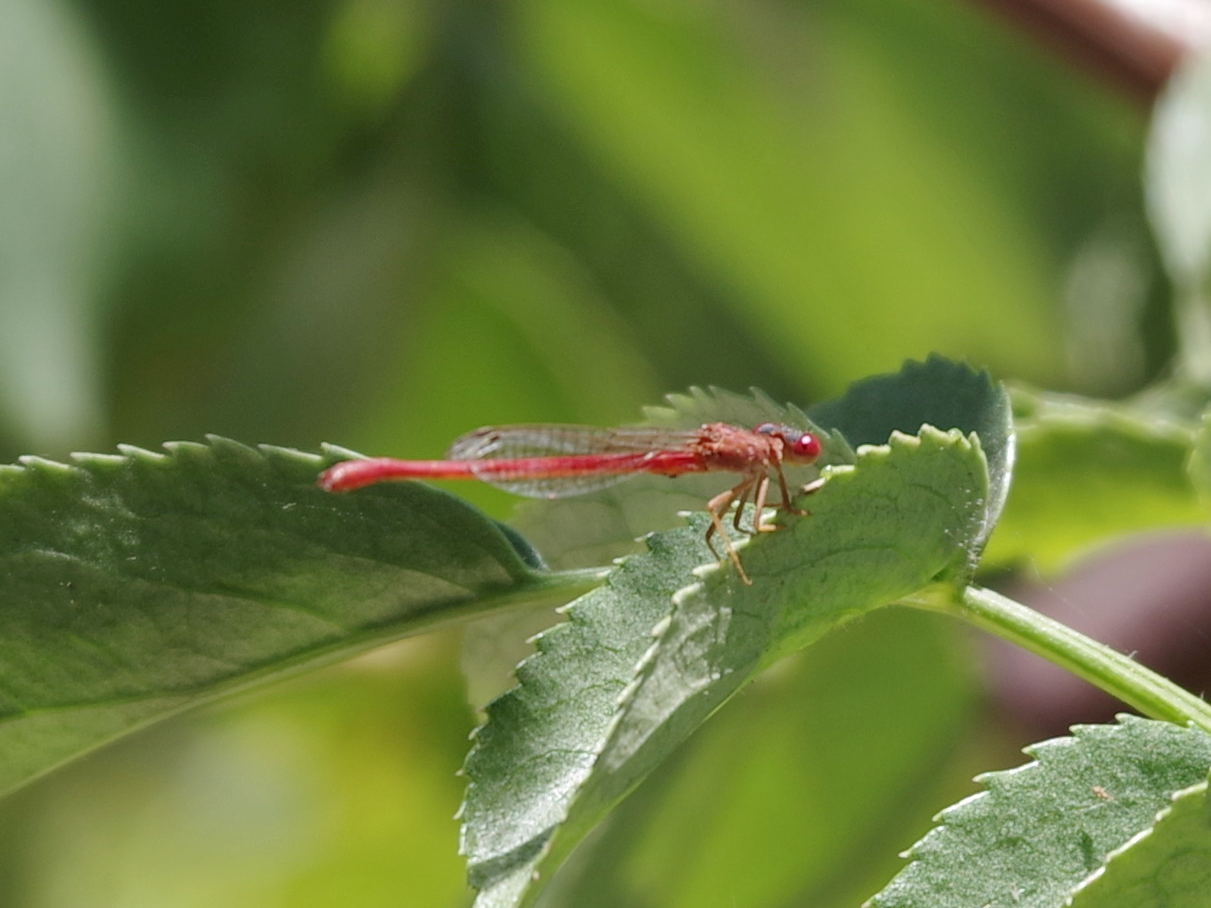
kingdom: Animalia
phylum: Arthropoda
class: Insecta
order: Odonata
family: Coenagrionidae
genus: Telebasis
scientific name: Telebasis salva
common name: Desert firetail
